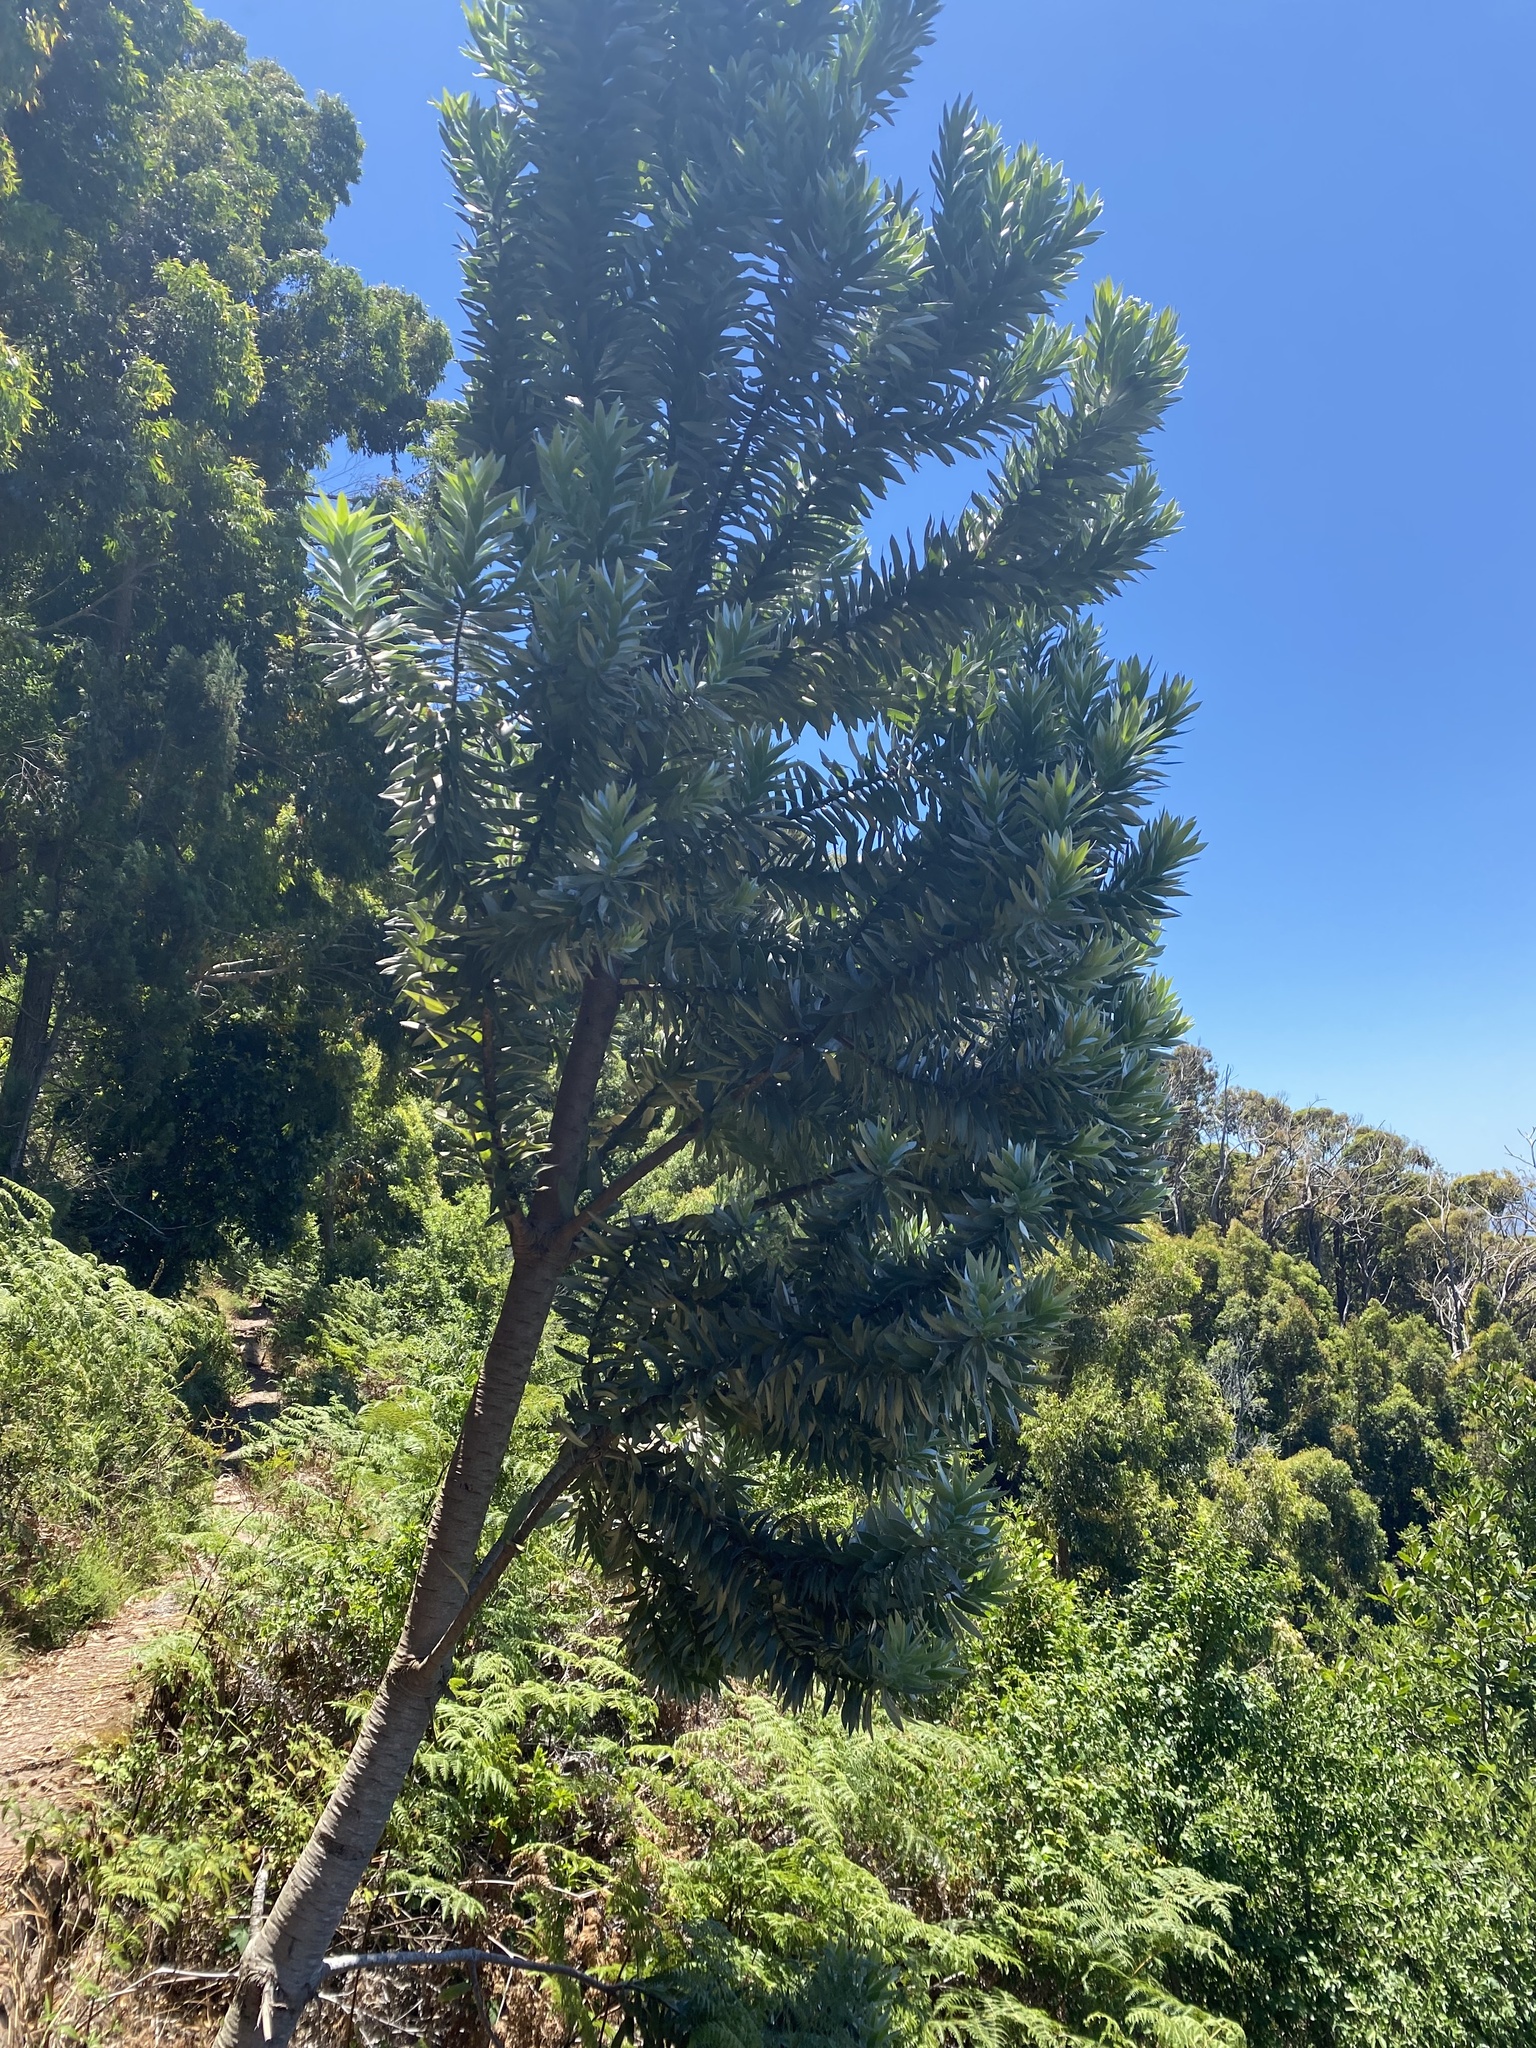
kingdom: Plantae
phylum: Tracheophyta
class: Magnoliopsida
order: Proteales
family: Proteaceae
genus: Leucadendron
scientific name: Leucadendron argenteum
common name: Cape silver tree
